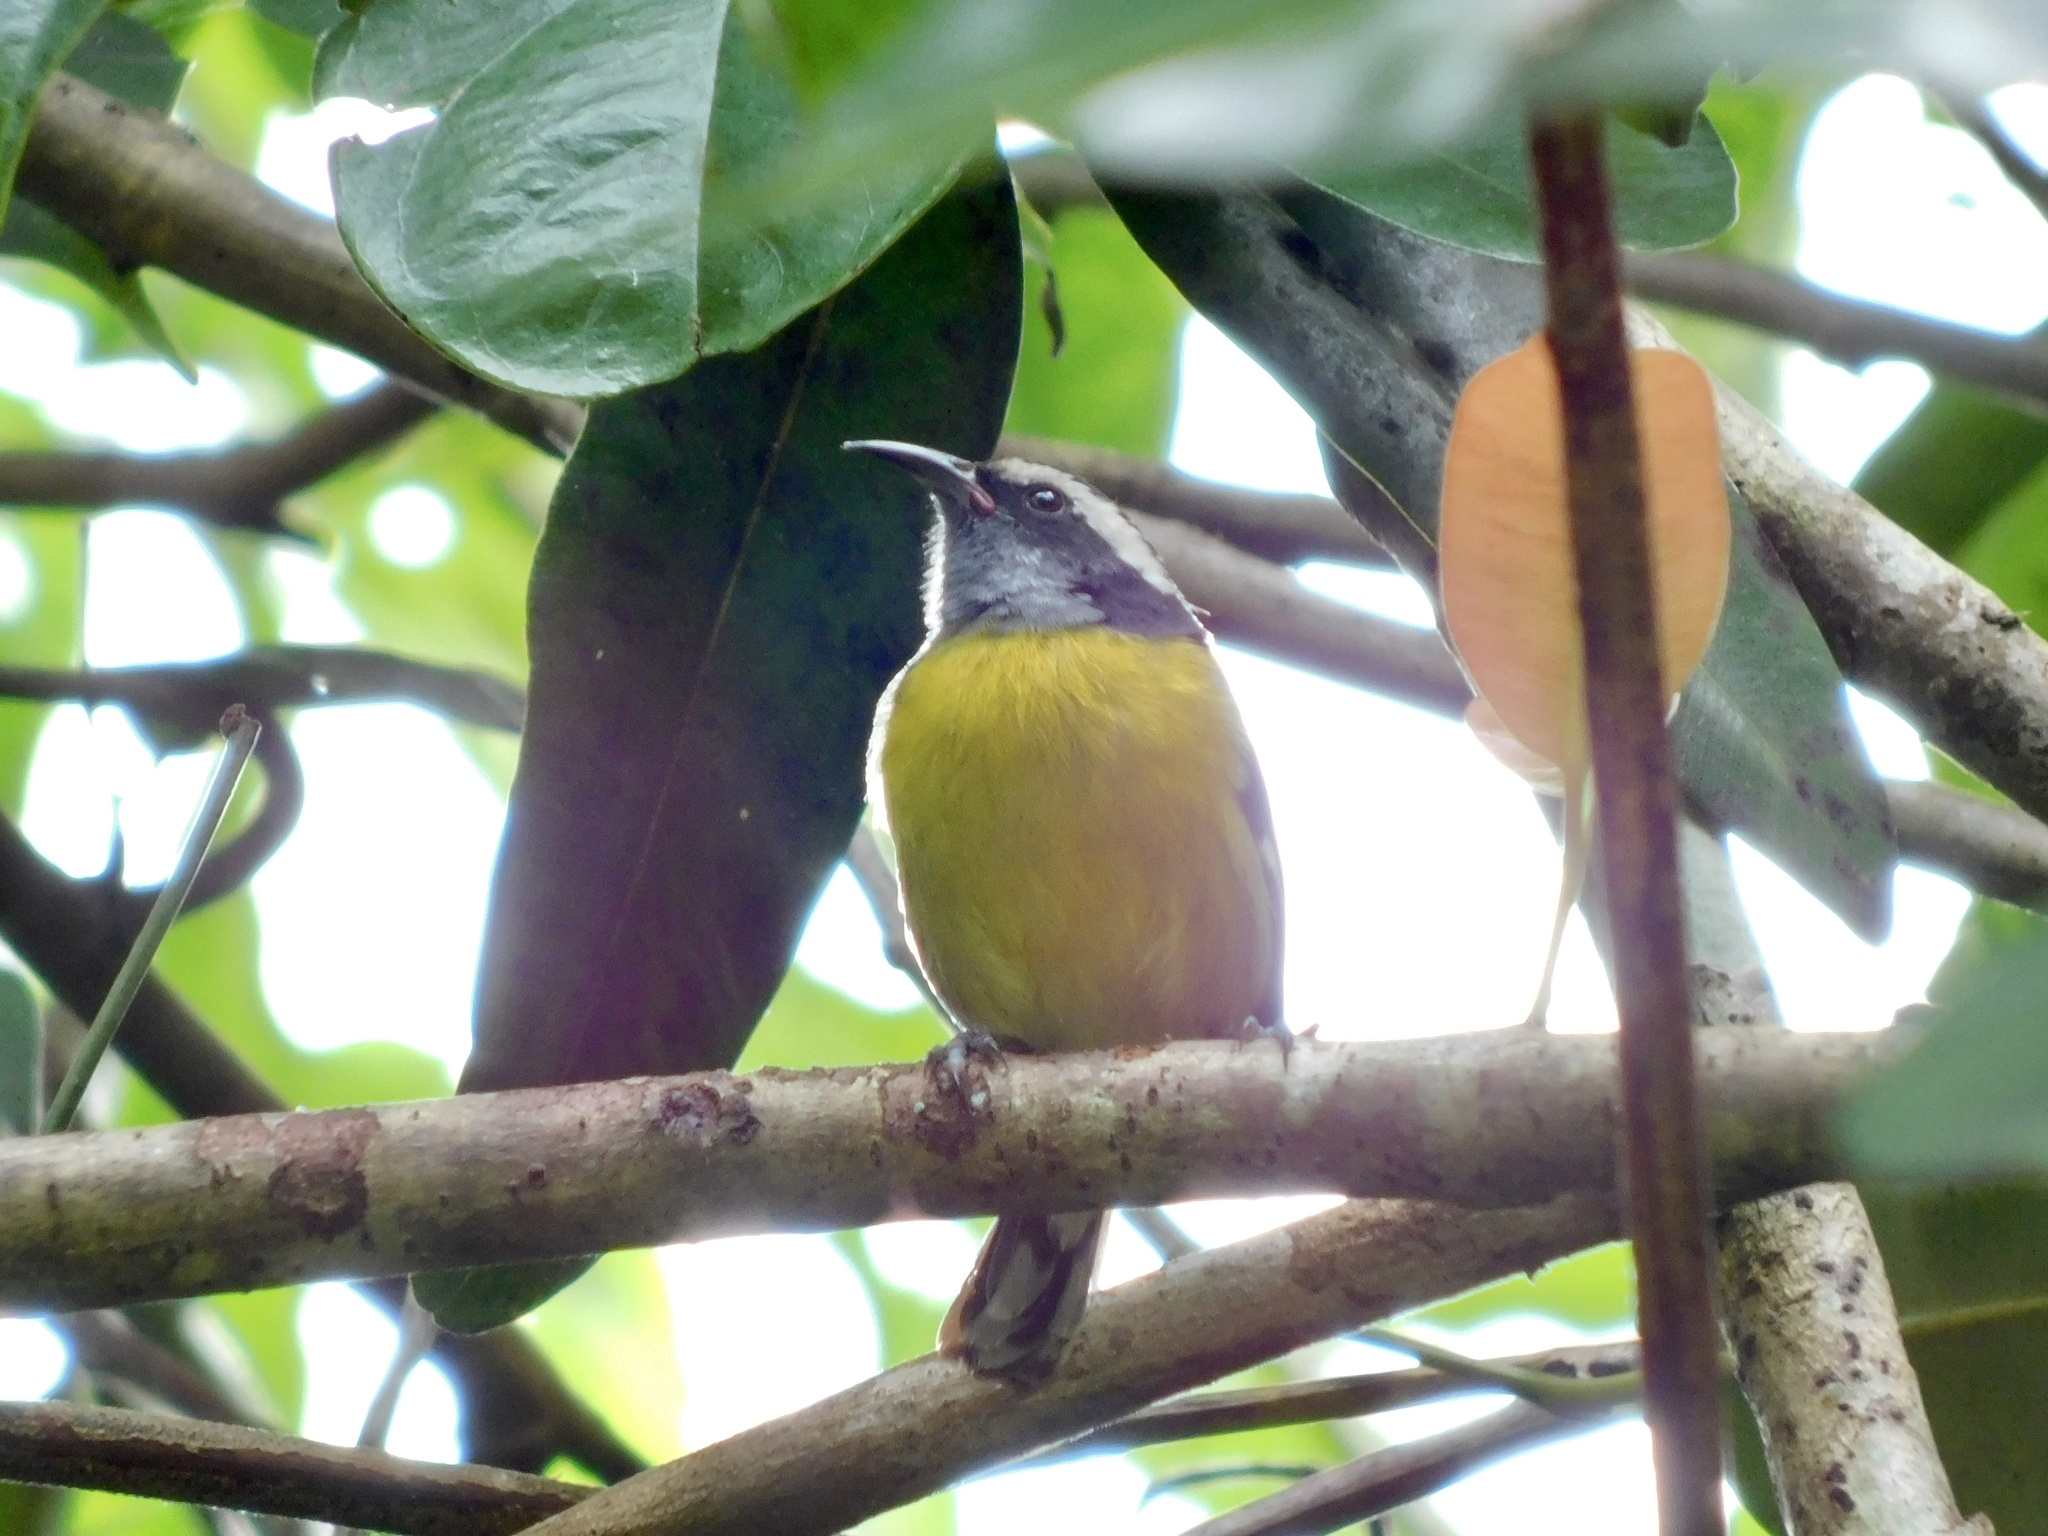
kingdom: Animalia
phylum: Chordata
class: Aves
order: Passeriformes
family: Thraupidae
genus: Coereba
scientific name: Coereba flaveola
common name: Bananaquit
